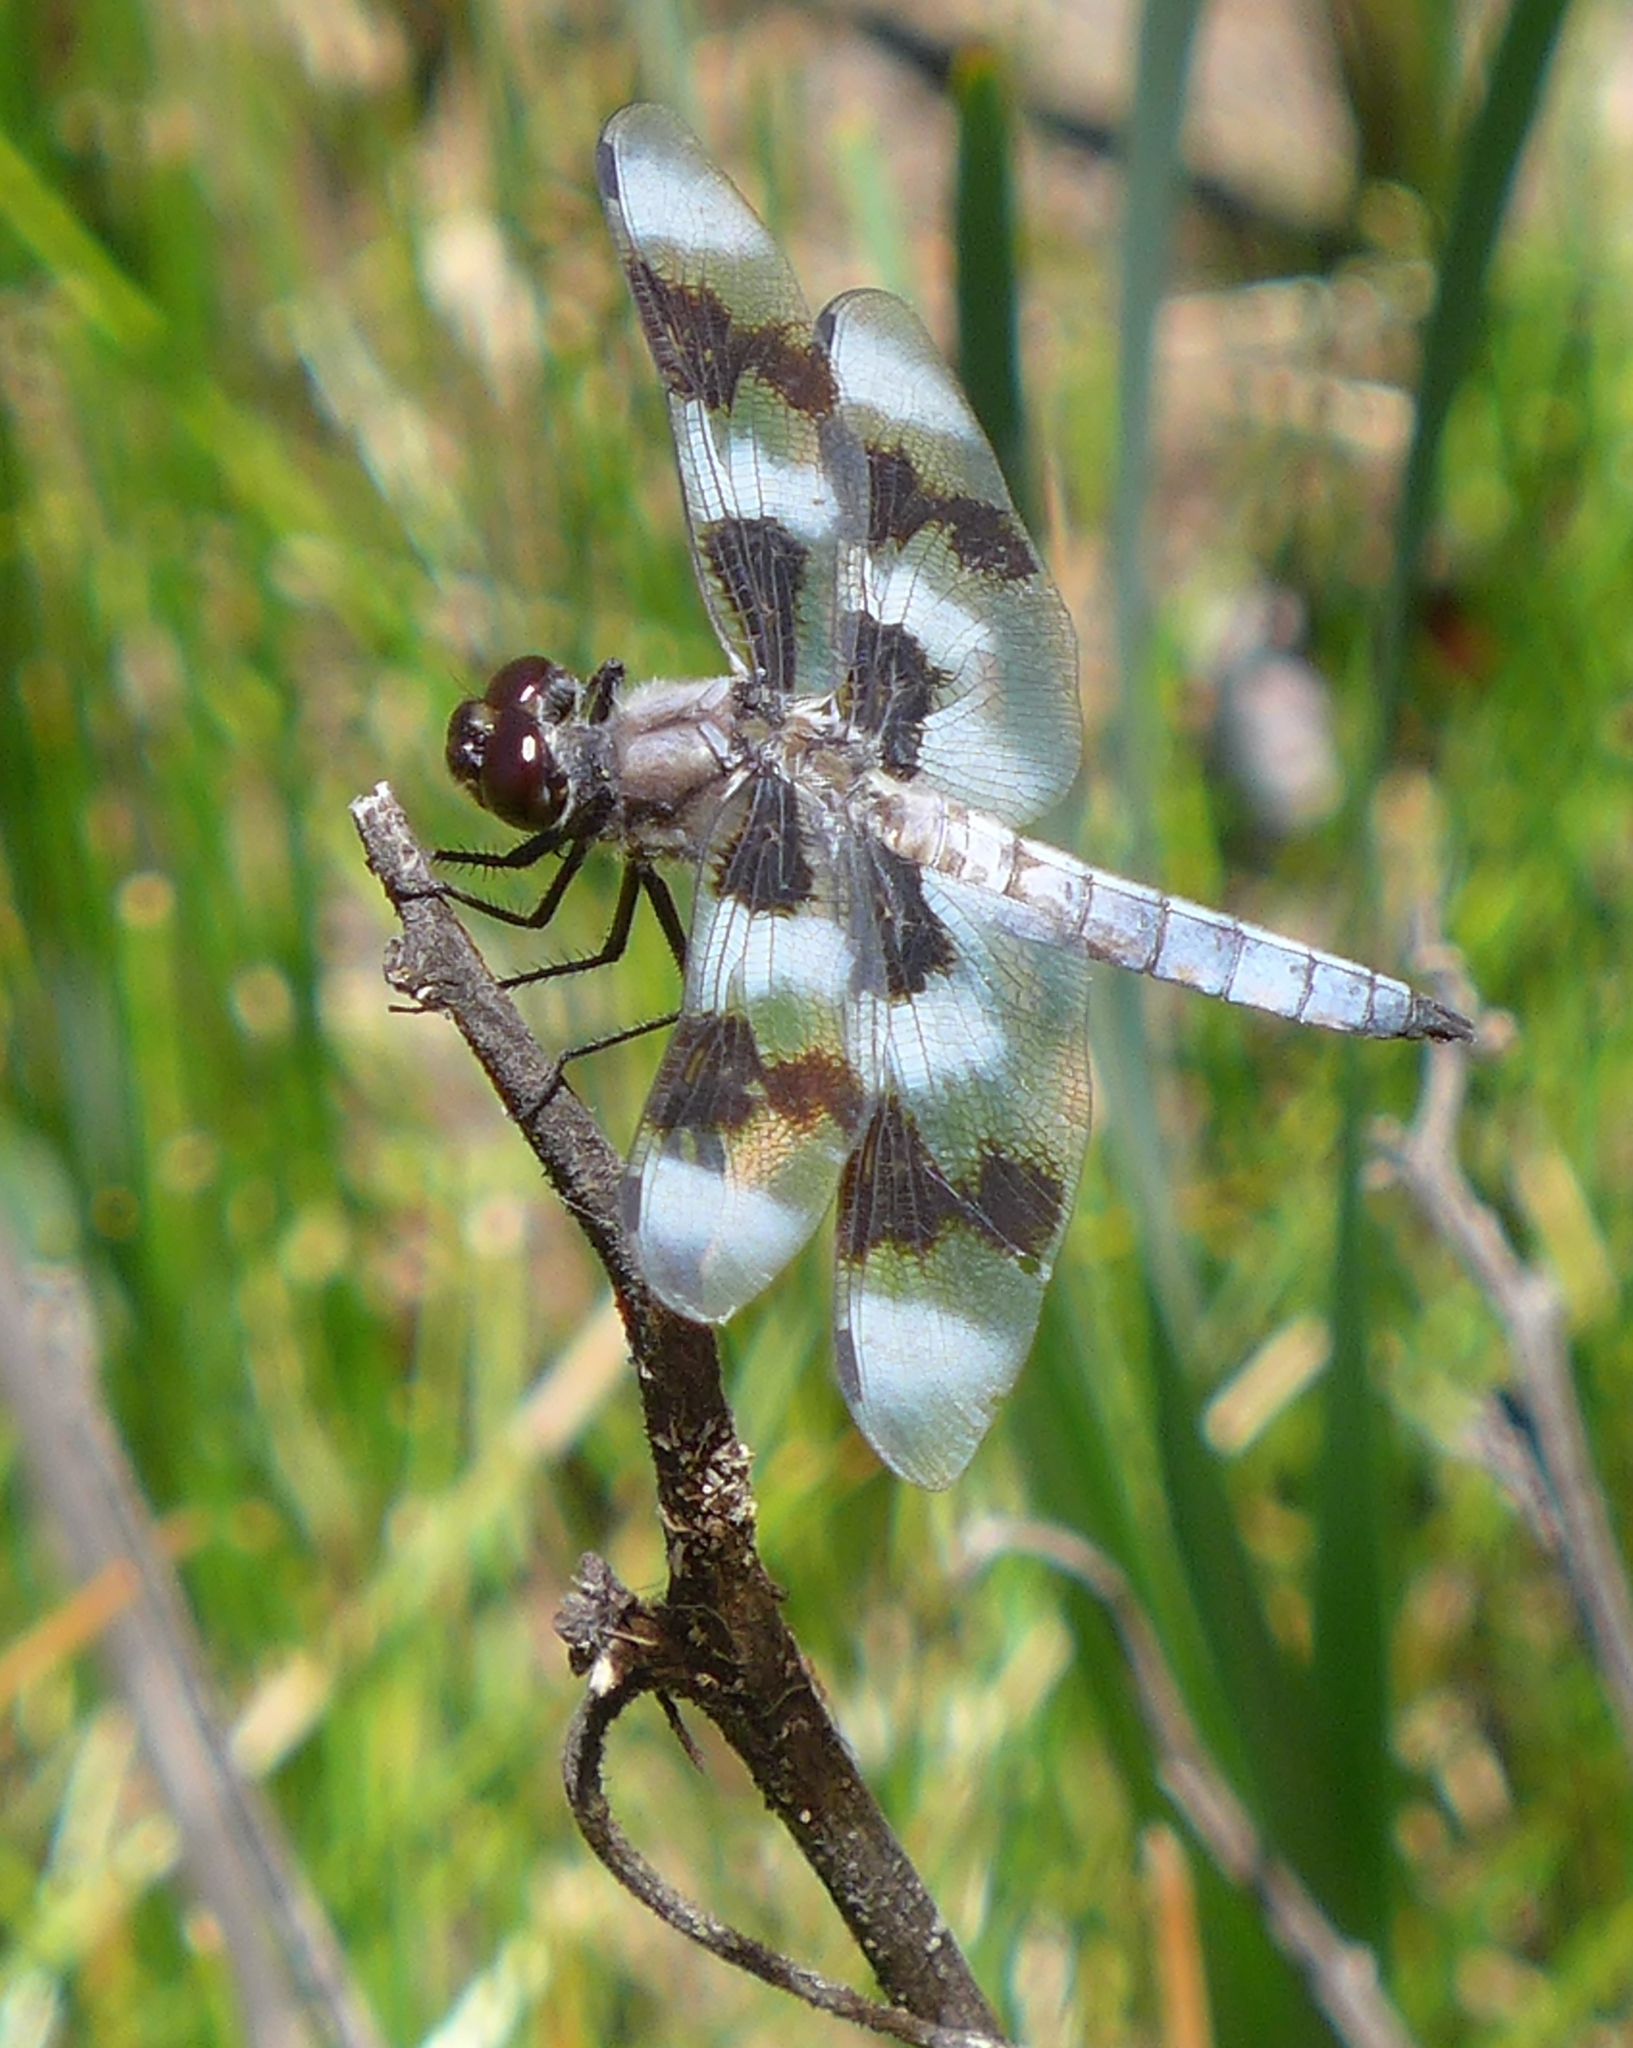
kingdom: Animalia
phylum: Arthropoda
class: Insecta
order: Odonata
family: Libellulidae
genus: Libellula
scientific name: Libellula forensis
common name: Eight-spotted skimmer
